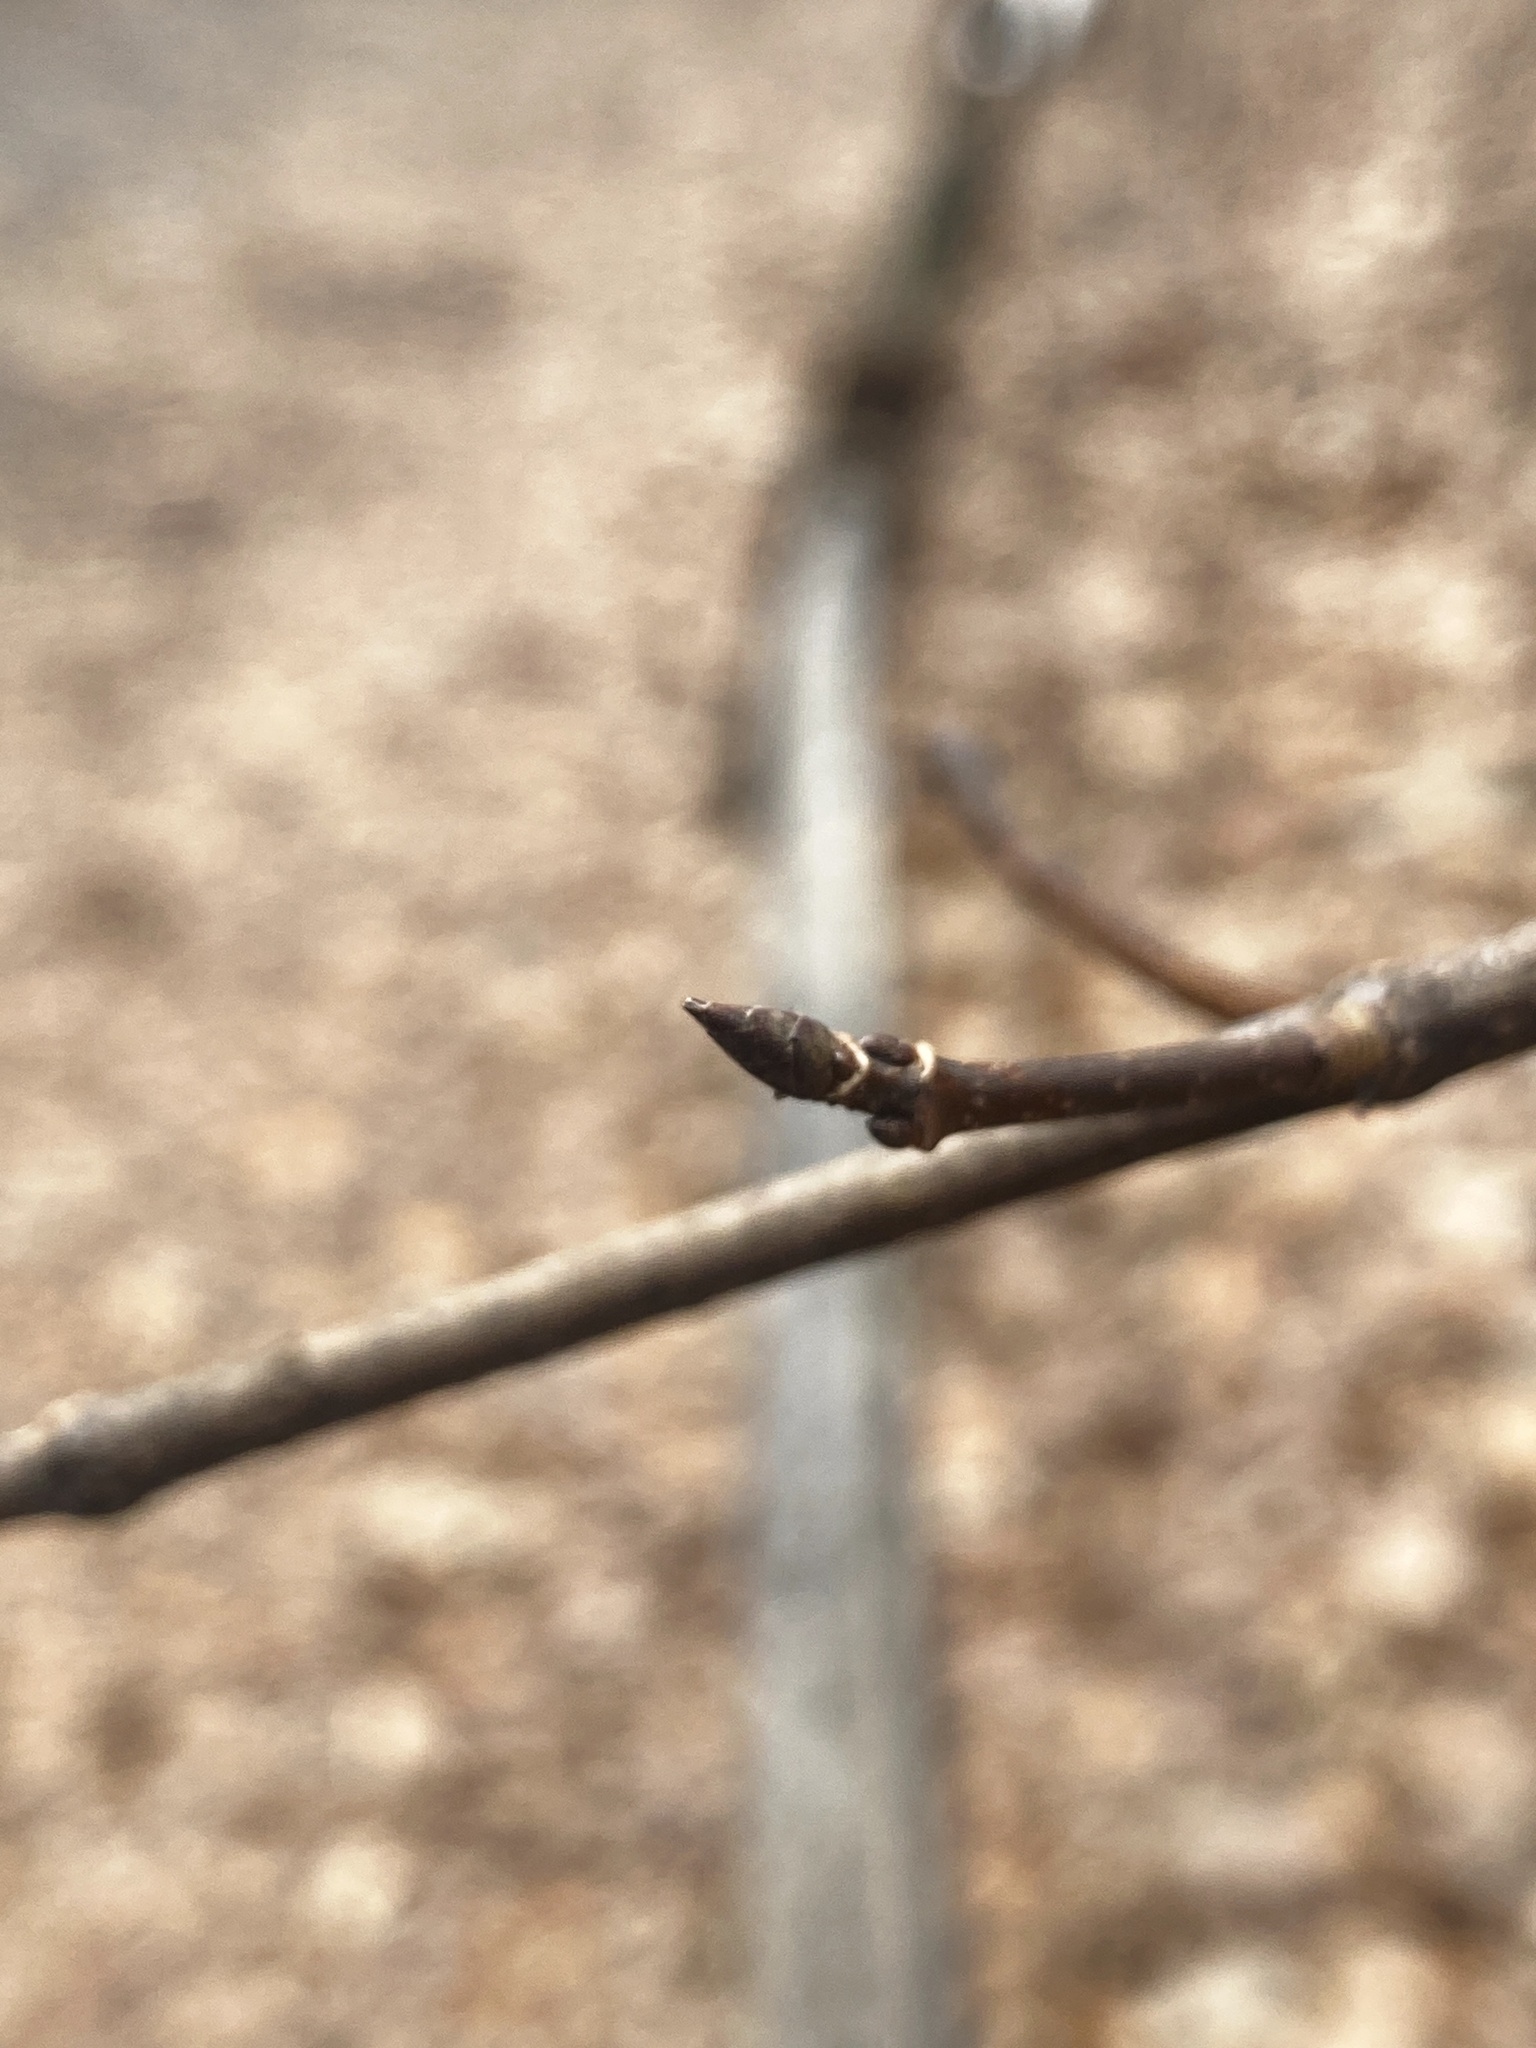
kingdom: Plantae
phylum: Tracheophyta
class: Magnoliopsida
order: Sapindales
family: Sapindaceae
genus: Acer
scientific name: Acer saccharum
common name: Sugar maple
